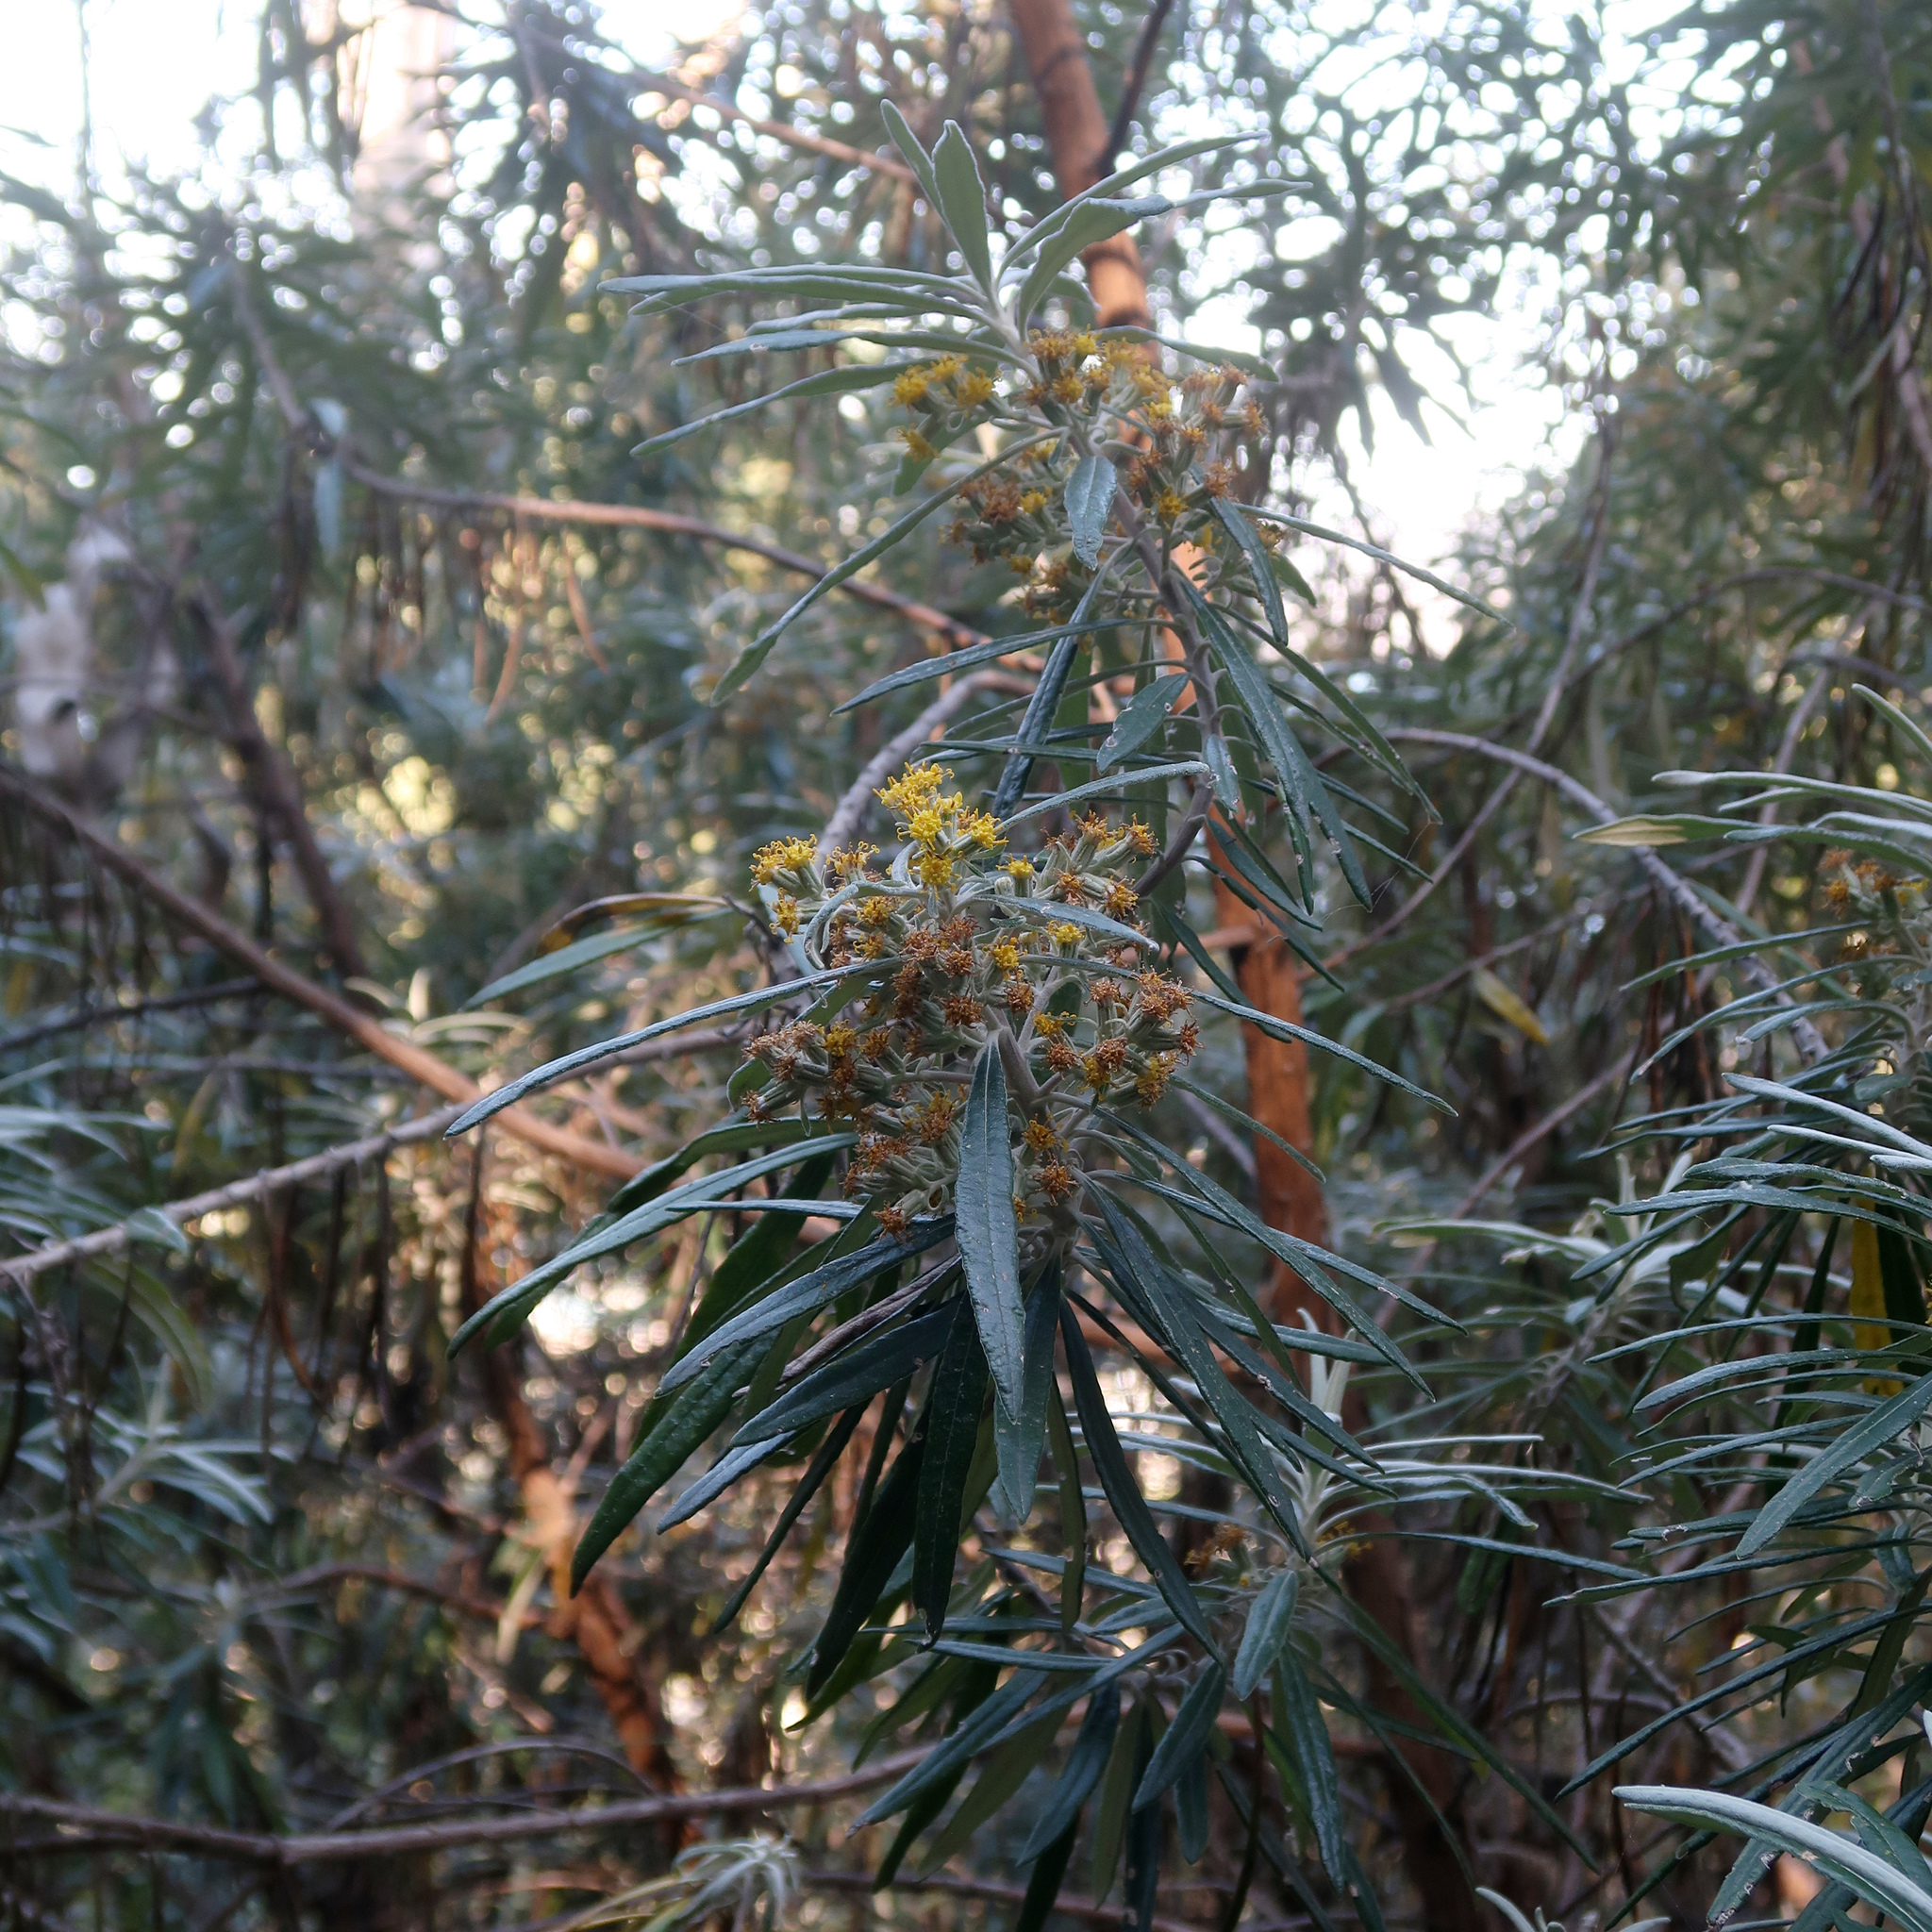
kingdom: Plantae
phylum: Tracheophyta
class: Magnoliopsida
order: Asterales
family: Asteraceae
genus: Bedfordia
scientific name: Bedfordia salicina
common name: Blanketleaf
